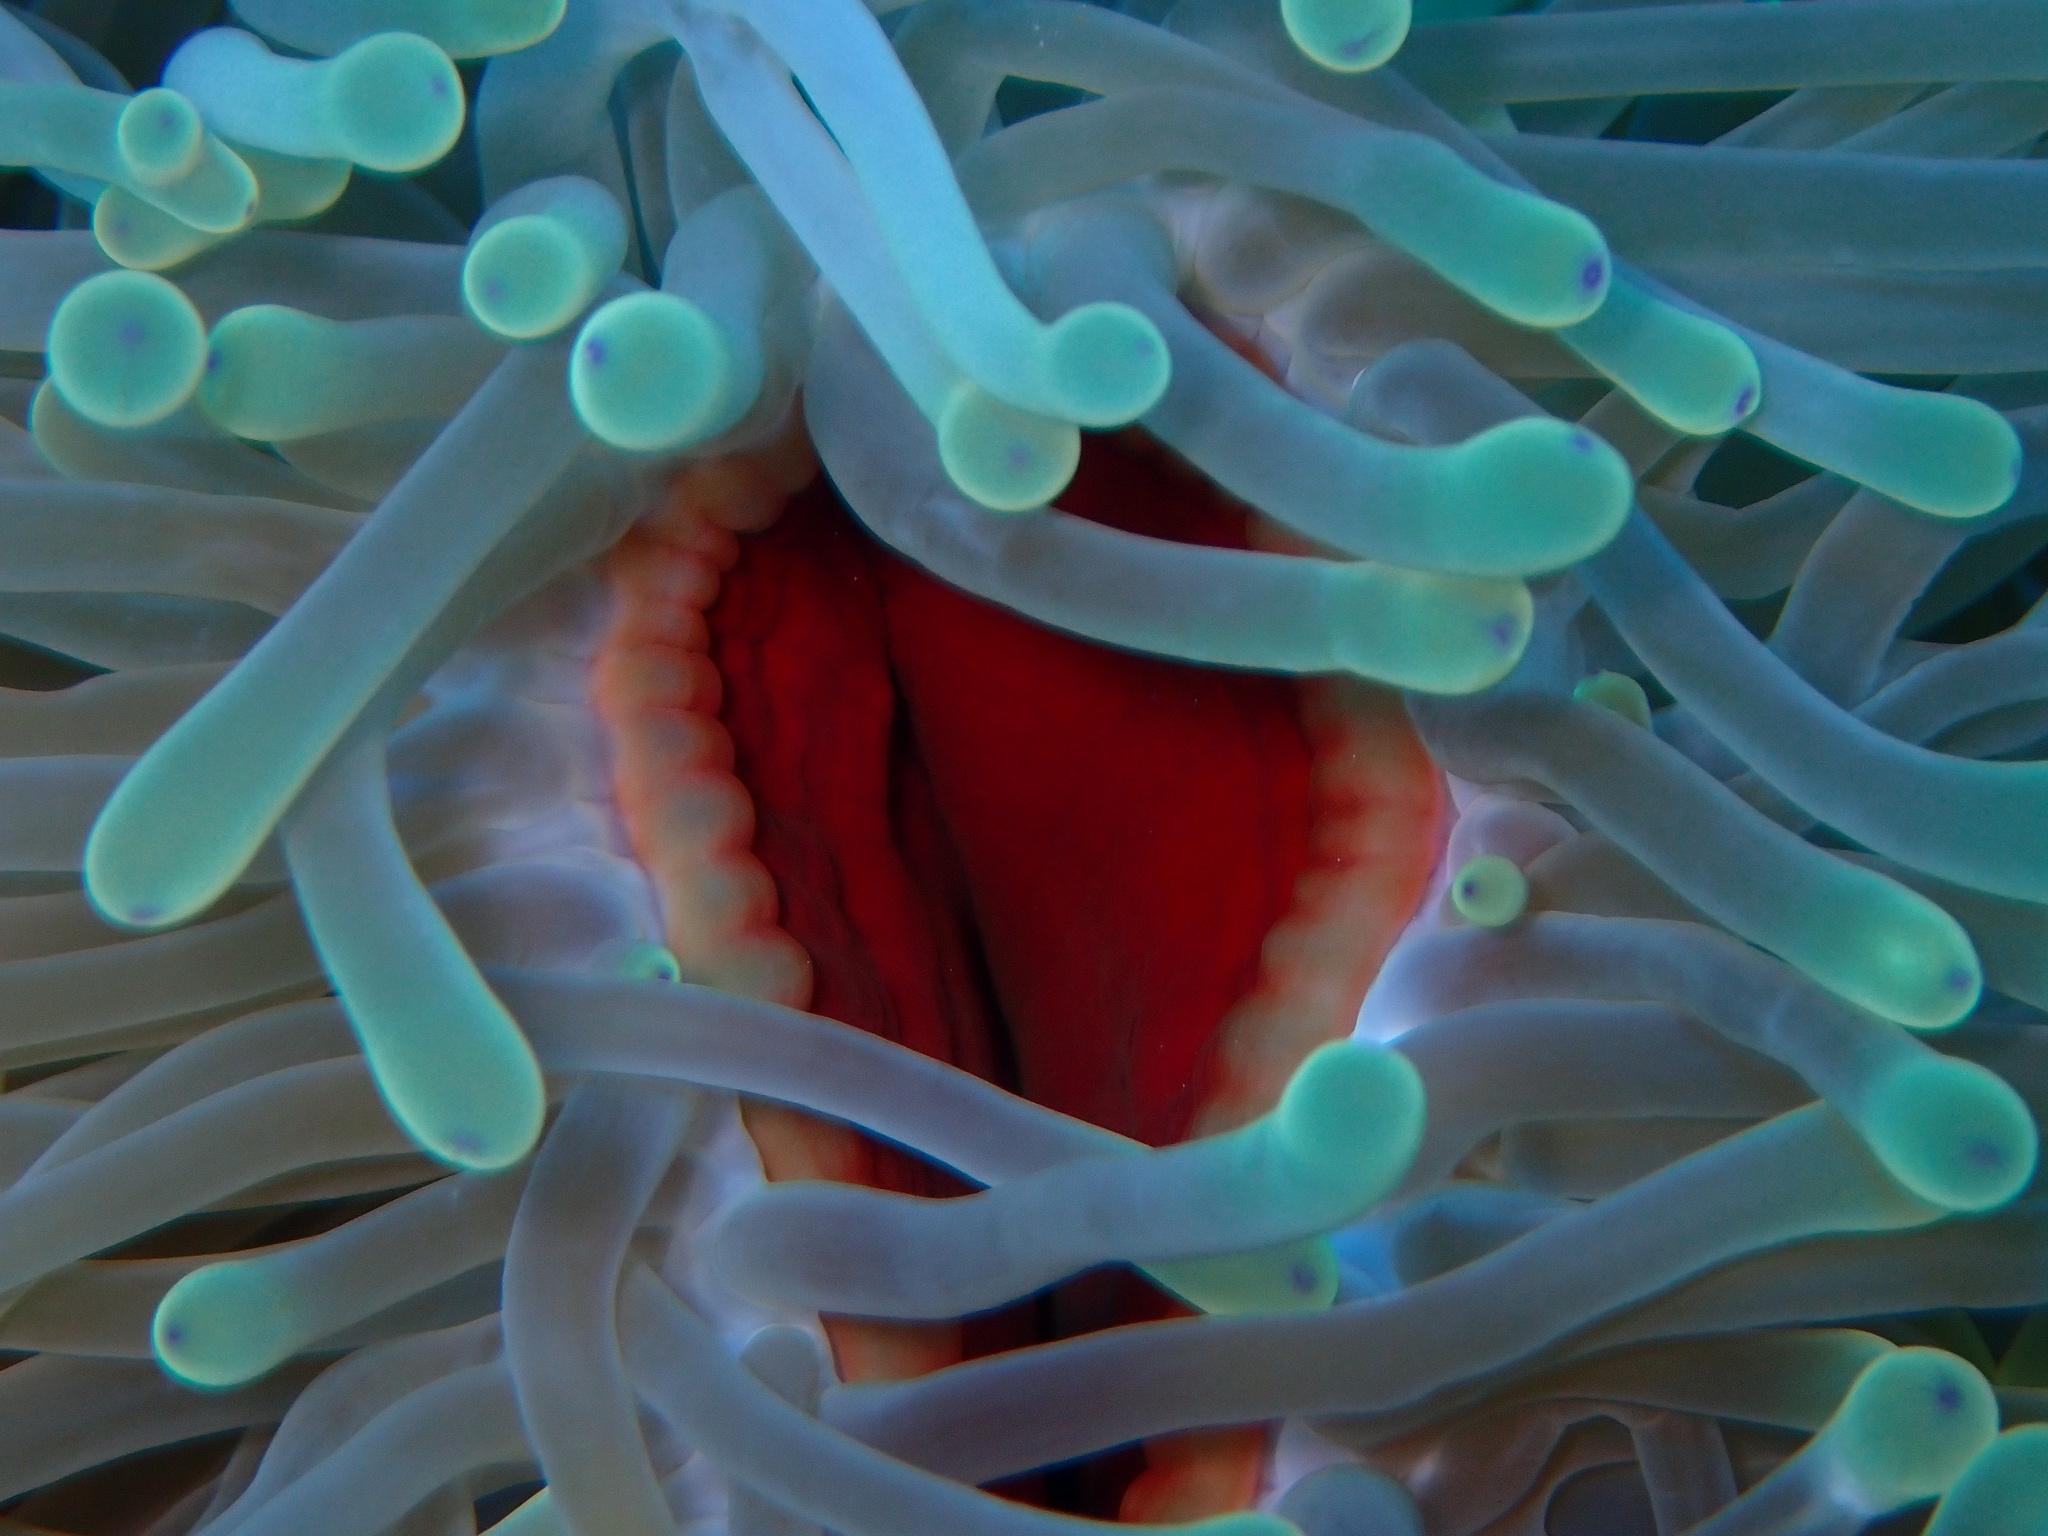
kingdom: Animalia
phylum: Cnidaria
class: Anthozoa
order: Actiniaria
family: Stichodactylidae
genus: Radianthus
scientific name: Radianthus magnifica
